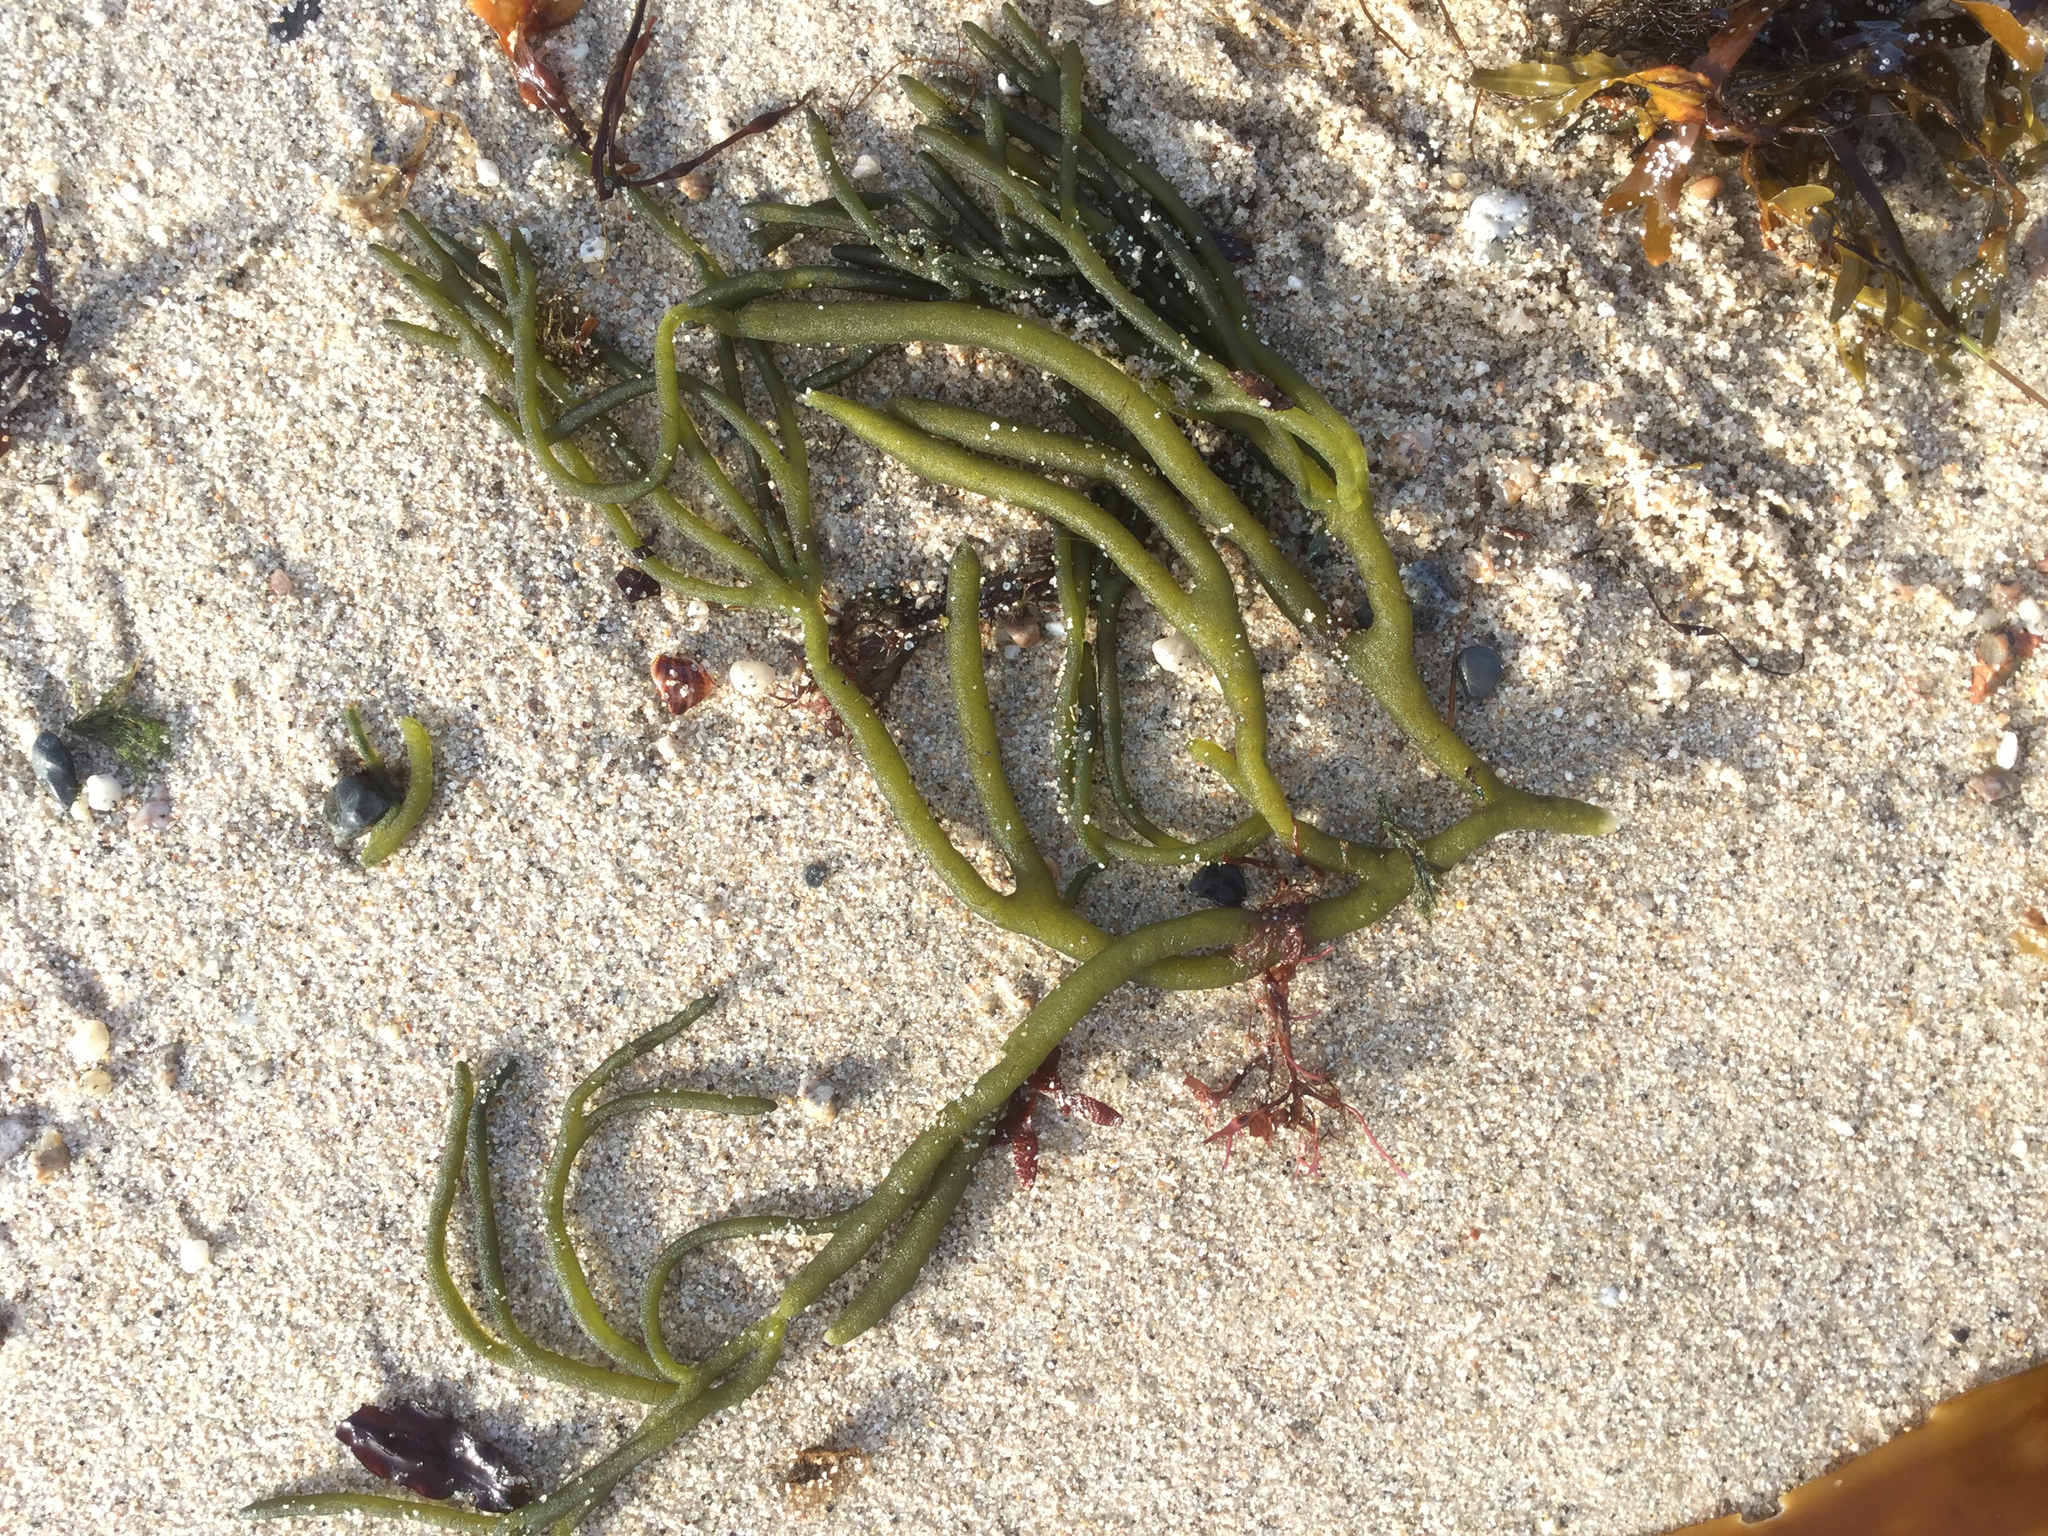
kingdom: Plantae
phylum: Chlorophyta
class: Ulvophyceae
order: Bryopsidales
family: Codiaceae
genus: Codium
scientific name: Codium fragile
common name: Dead man's fingers
